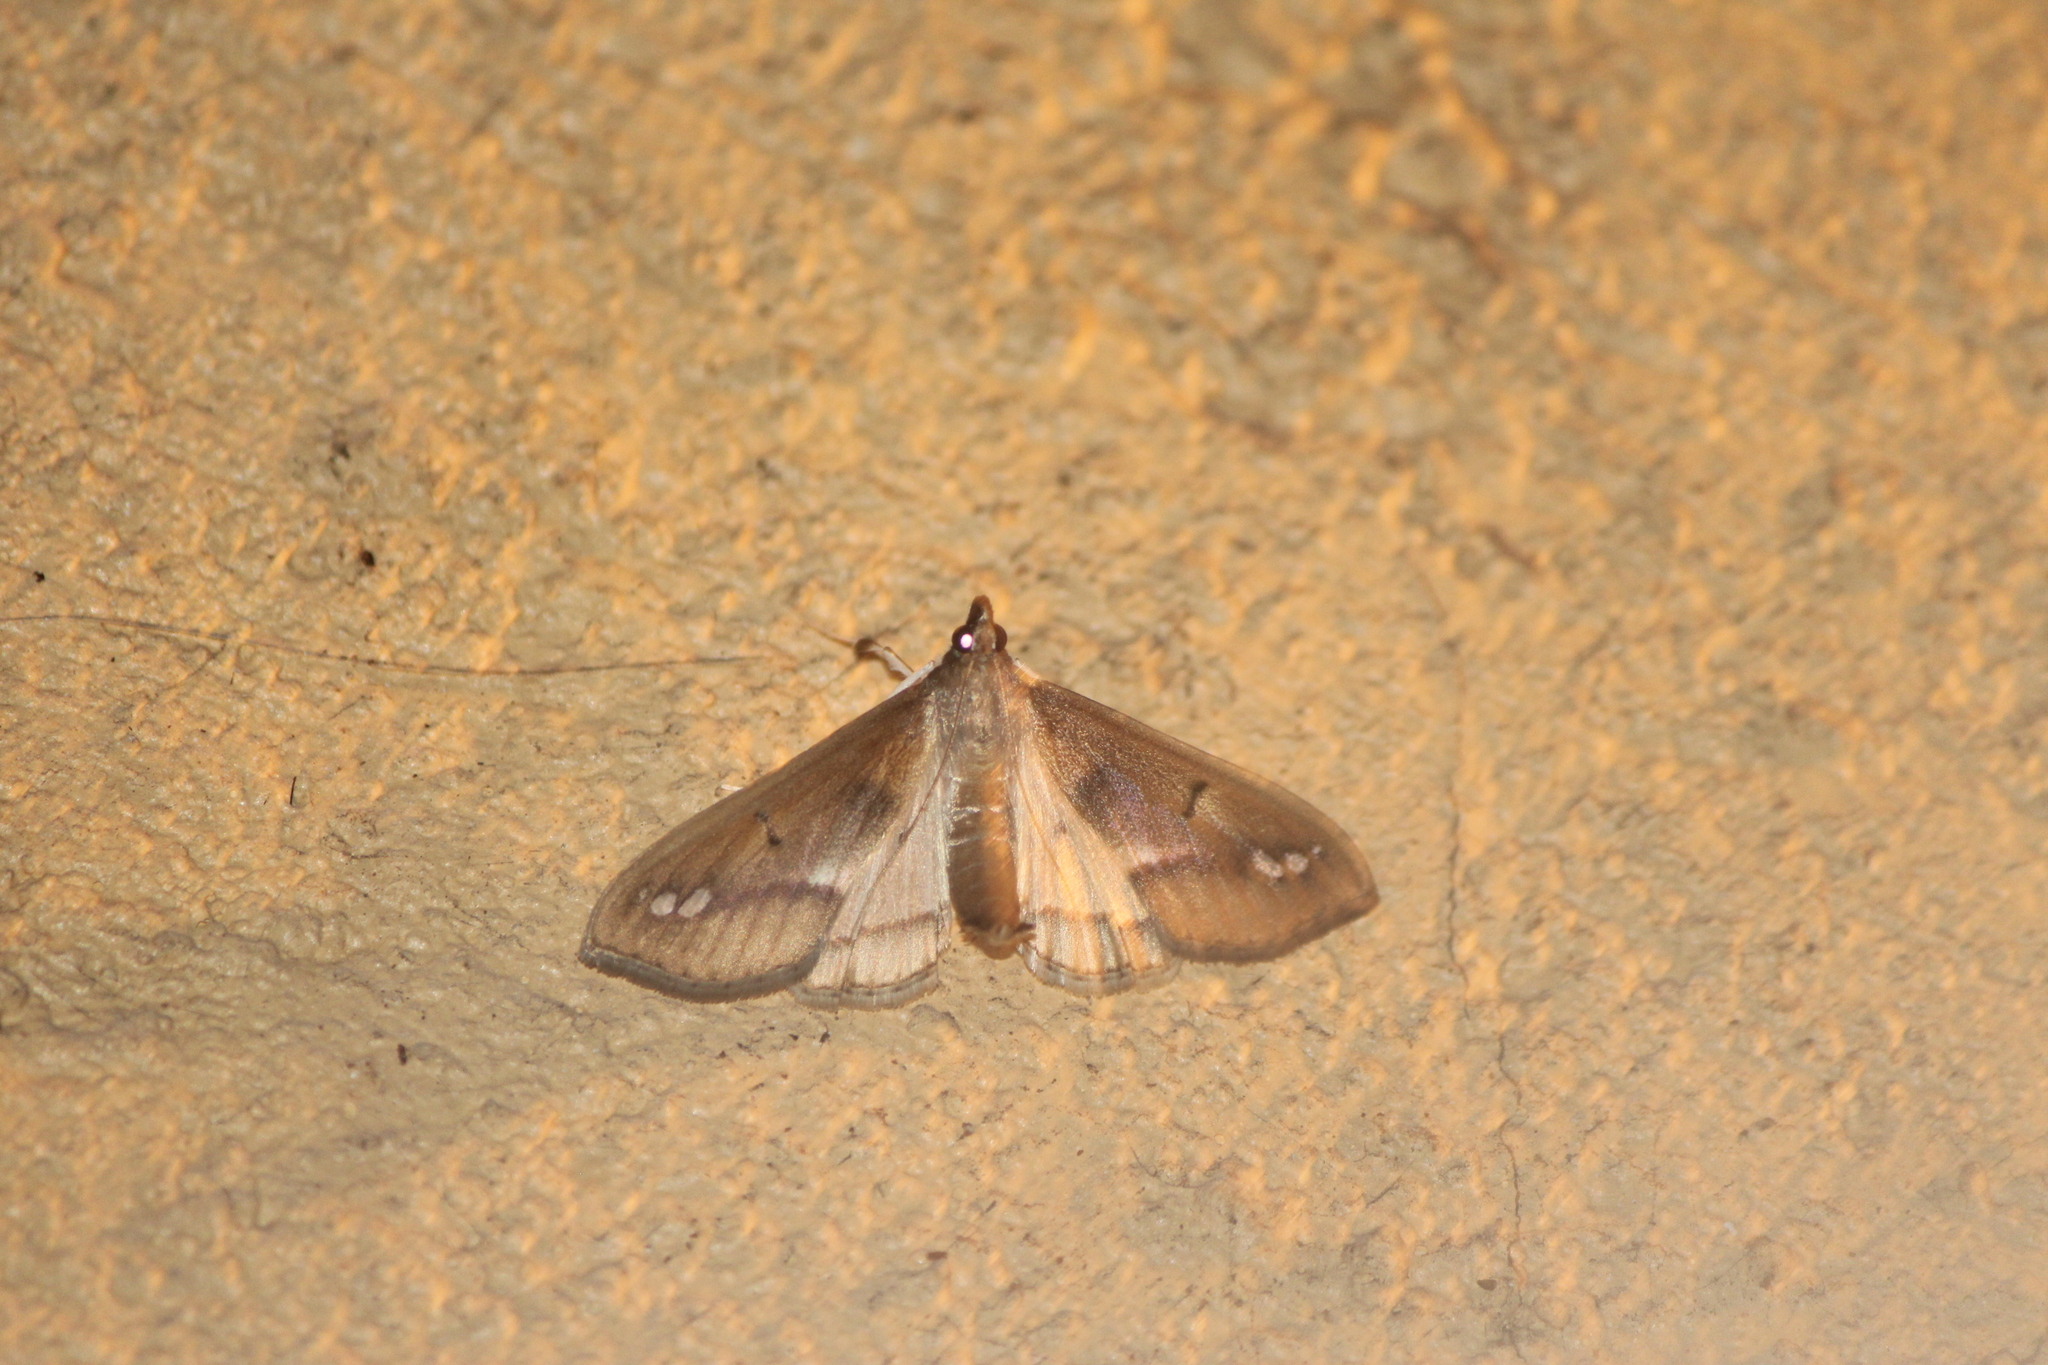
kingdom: Animalia
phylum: Arthropoda
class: Insecta
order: Lepidoptera
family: Crambidae
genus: Diaphania
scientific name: Diaphania
